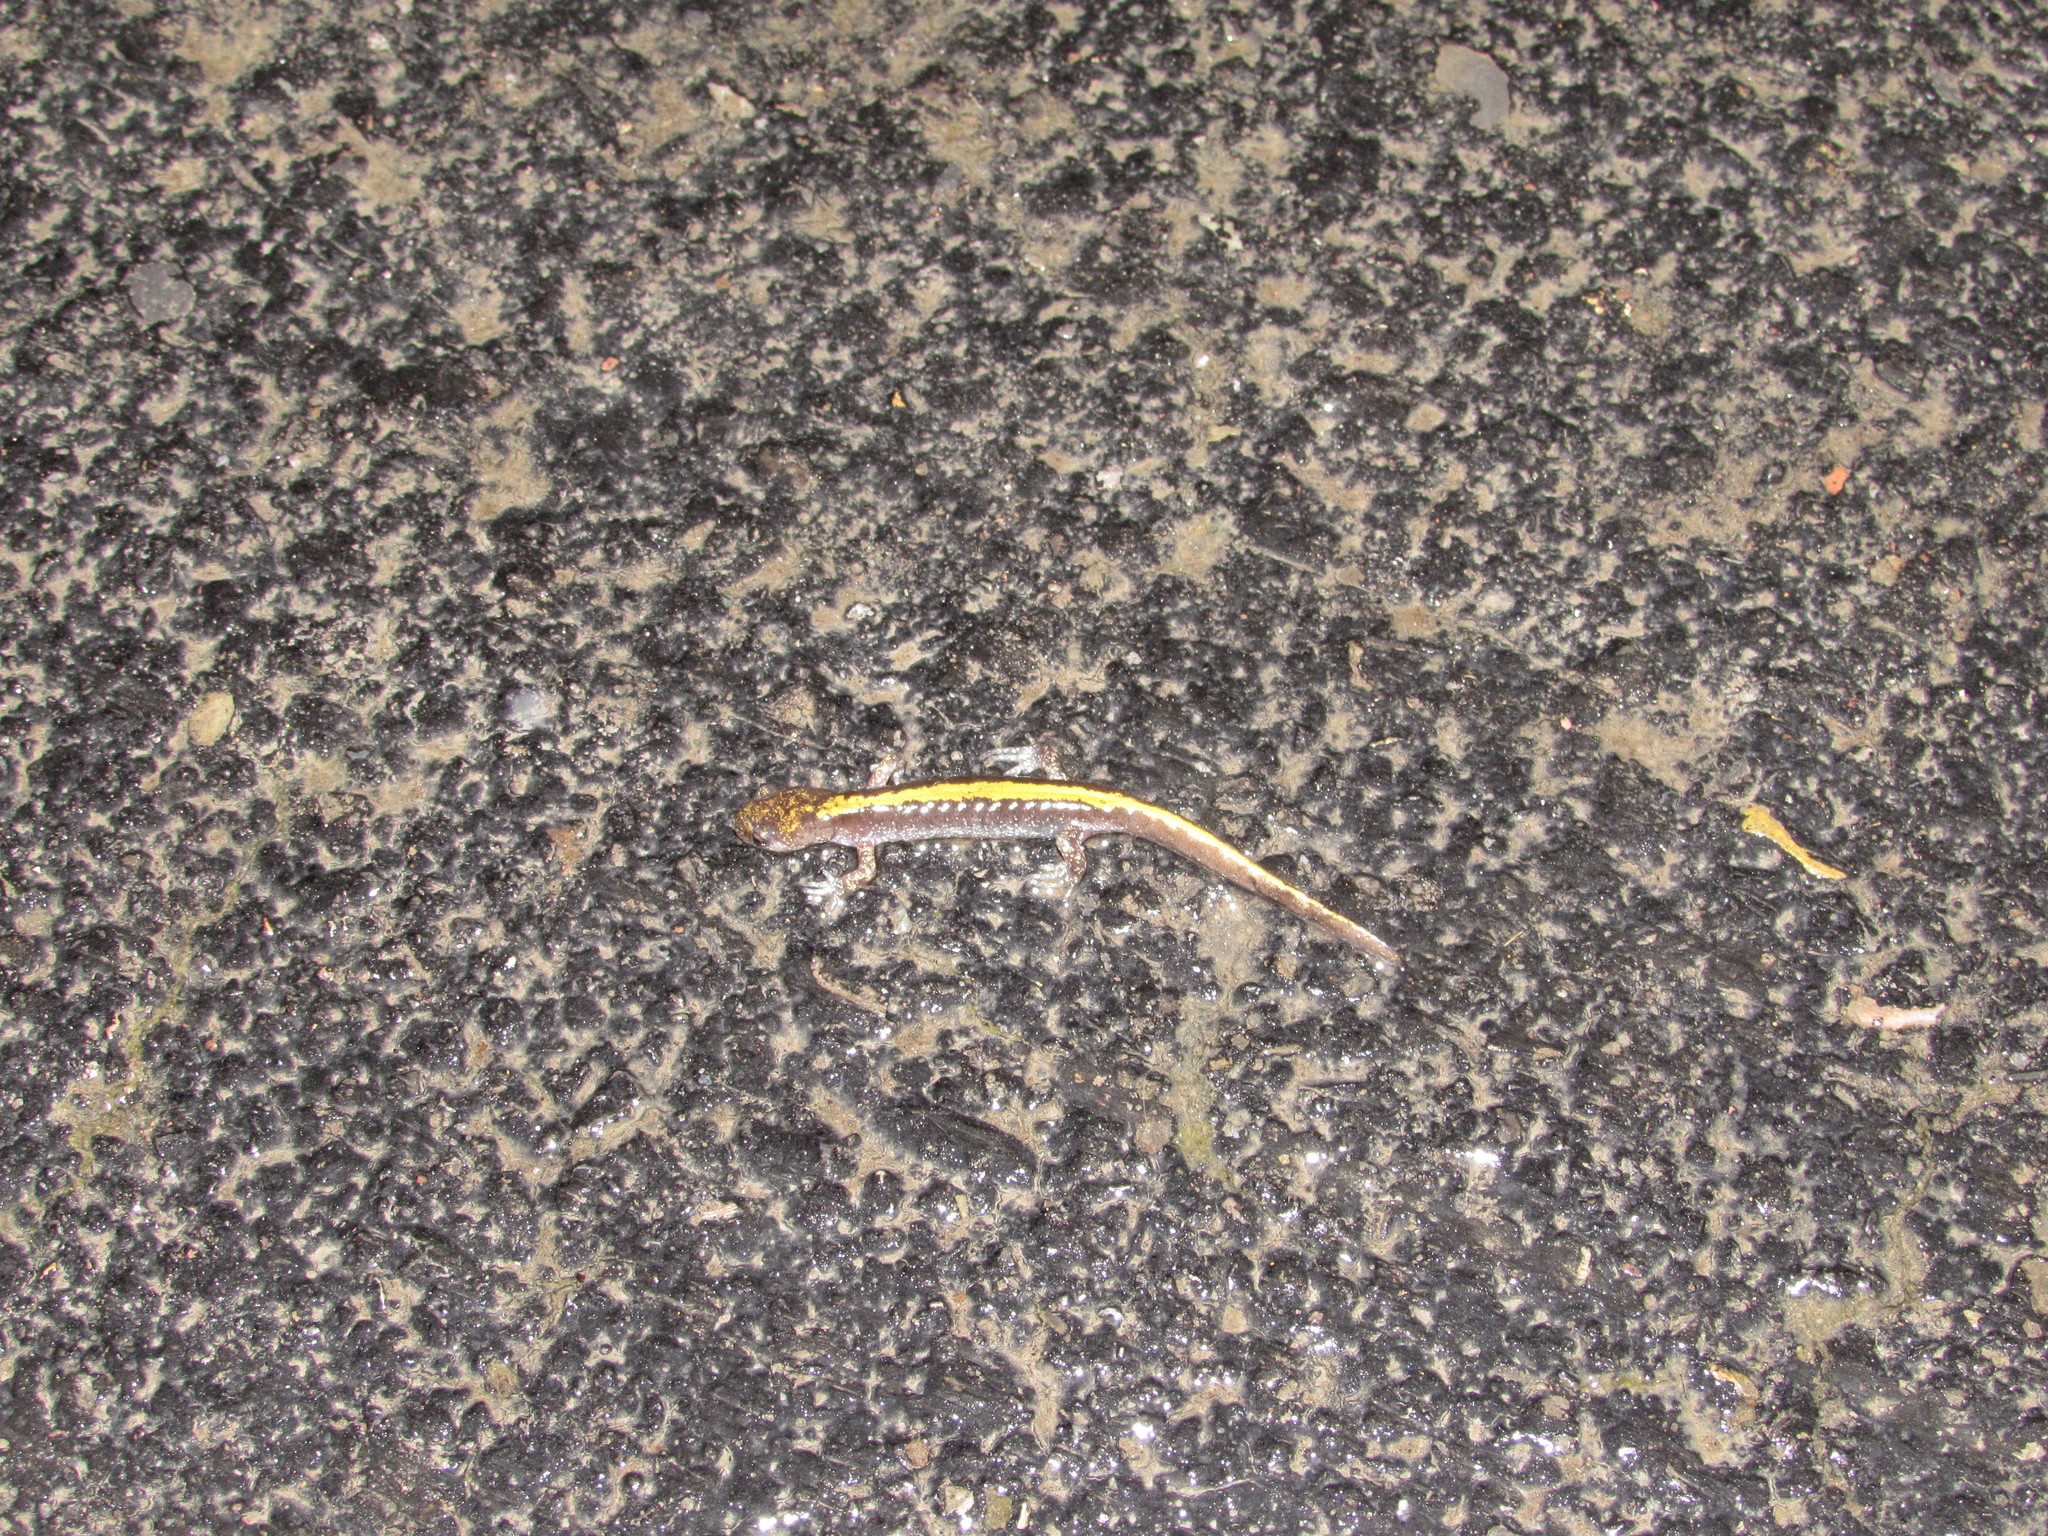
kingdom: Animalia
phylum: Chordata
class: Amphibia
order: Caudata
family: Ambystomatidae
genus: Ambystoma
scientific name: Ambystoma macrodactylum
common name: Long-toed salamander
